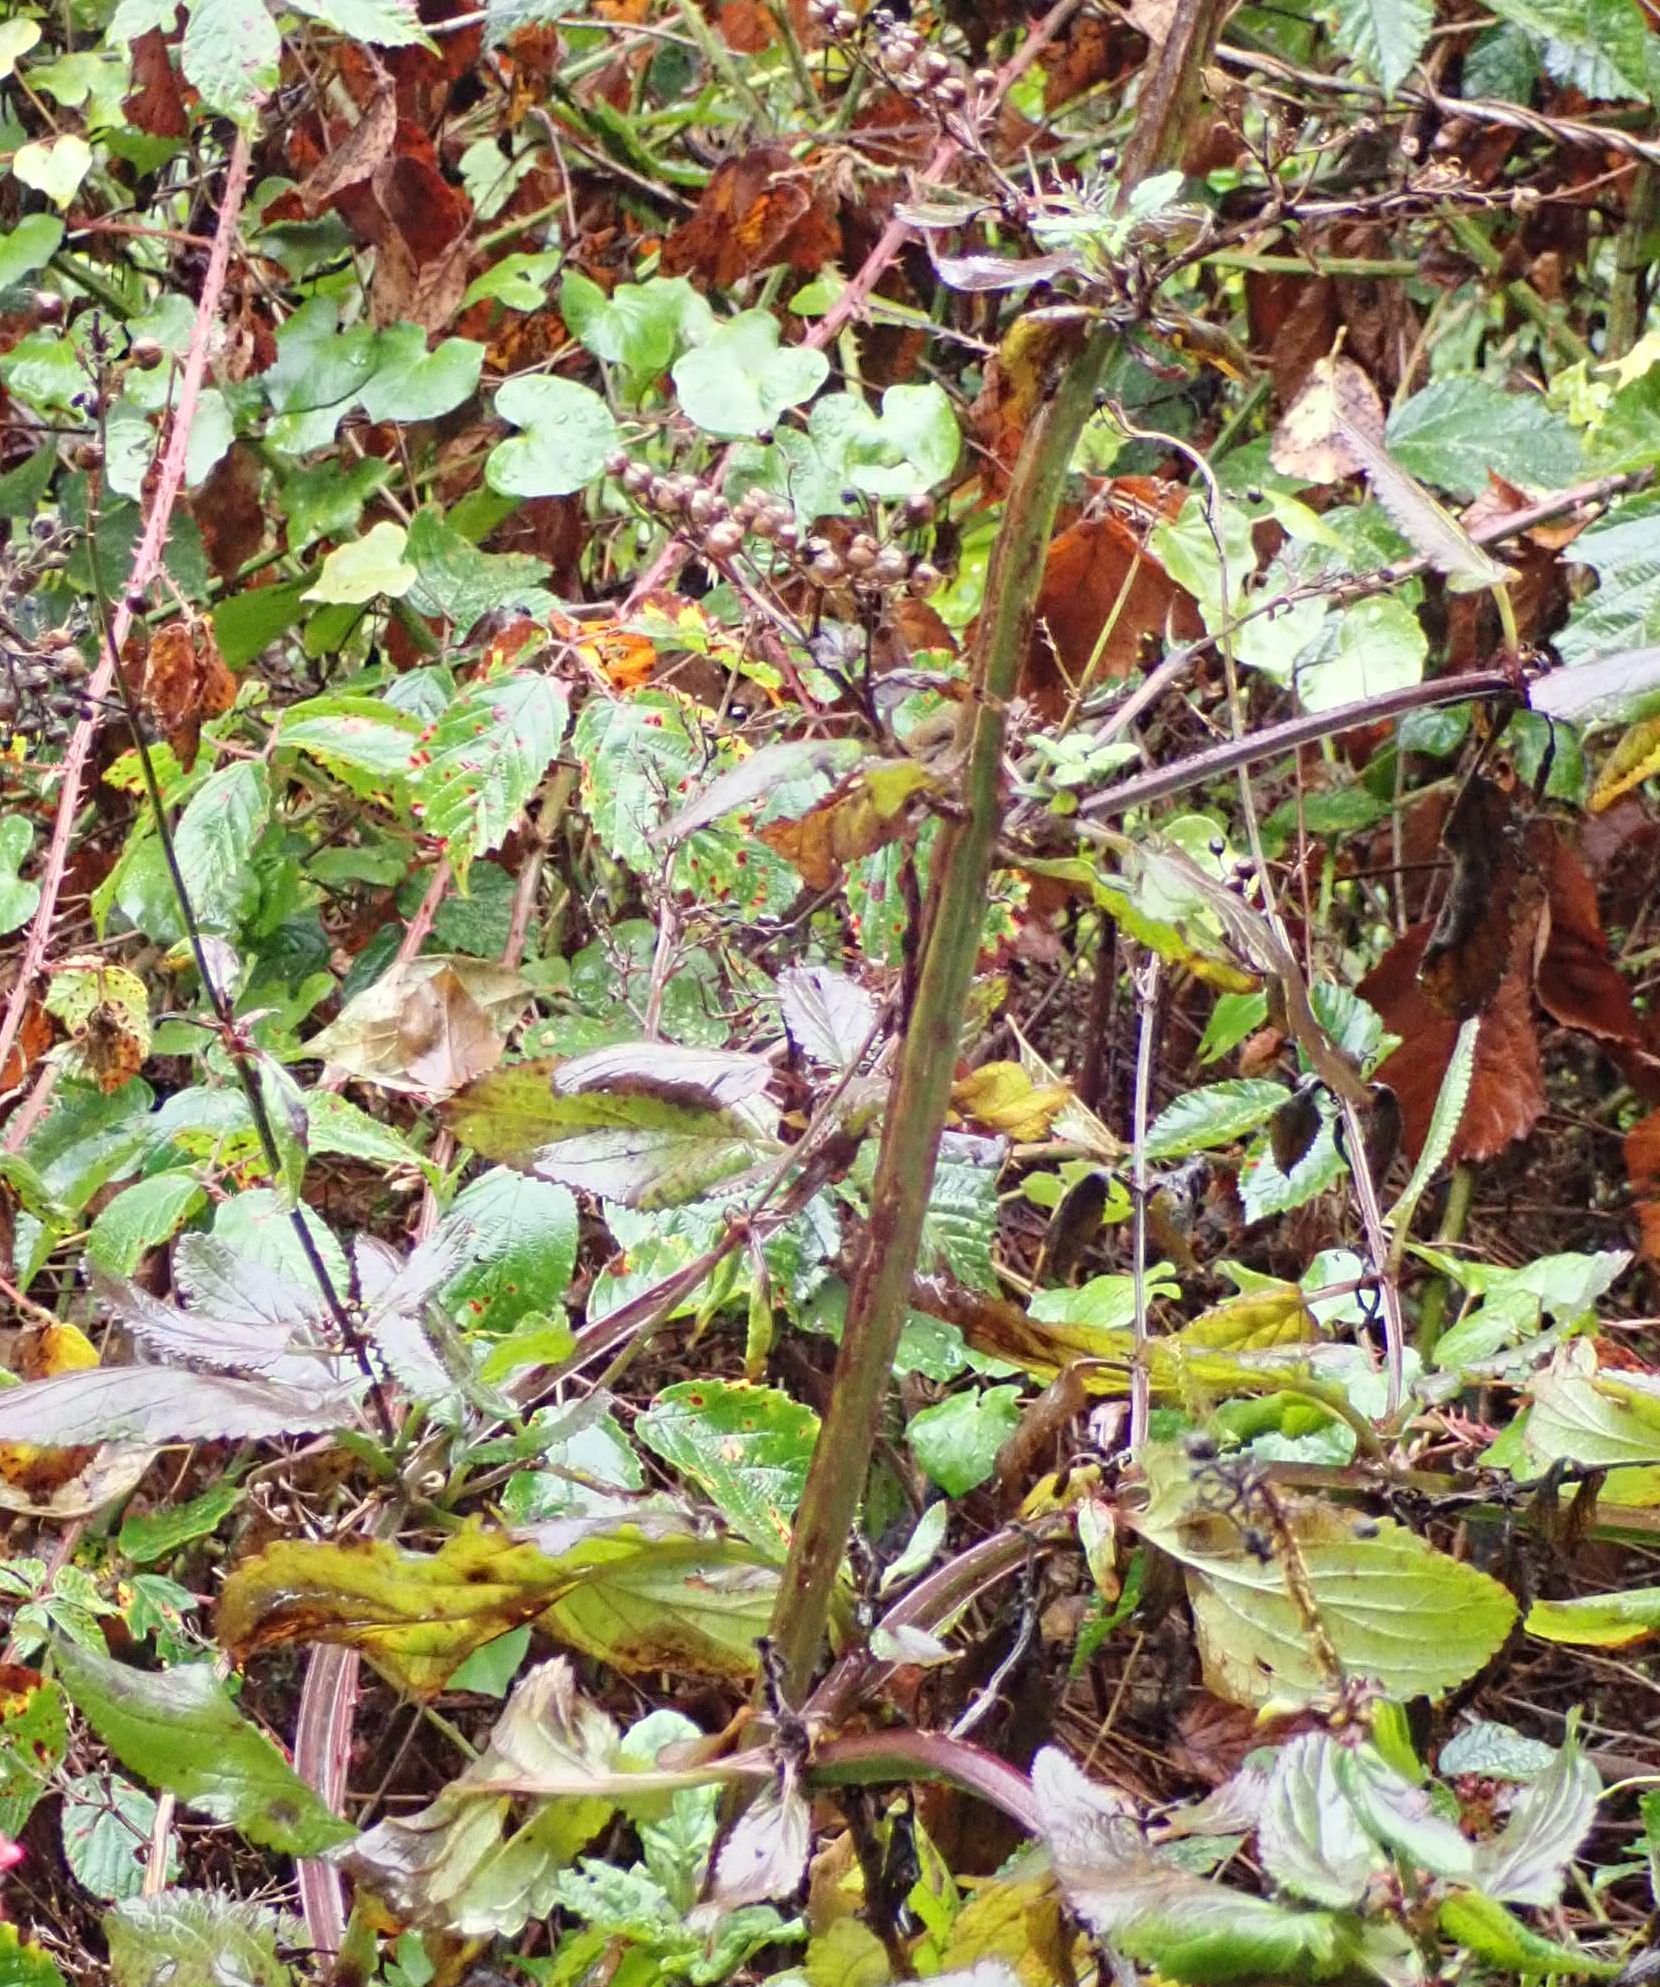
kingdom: Plantae
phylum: Tracheophyta
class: Magnoliopsida
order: Lamiales
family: Scrophulariaceae
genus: Scrophularia
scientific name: Scrophularia auriculata
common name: Water betony
